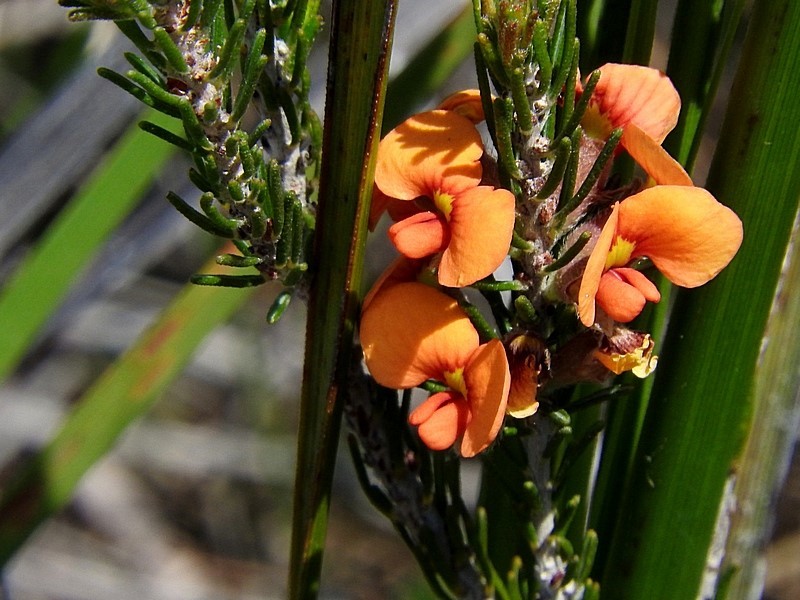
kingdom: Plantae
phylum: Tracheophyta
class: Magnoliopsida
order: Fabales
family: Fabaceae
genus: Dillwynia
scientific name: Dillwynia sericea
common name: Showy parrot-pea
